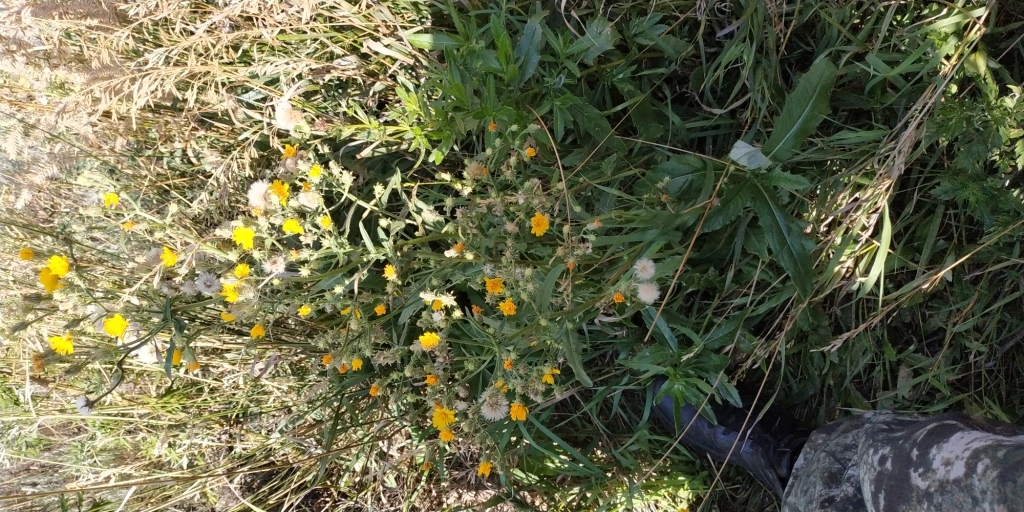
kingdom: Plantae
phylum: Tracheophyta
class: Magnoliopsida
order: Asterales
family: Asteraceae
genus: Picris
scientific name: Picris hieracioides
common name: Hawkweed oxtongue
